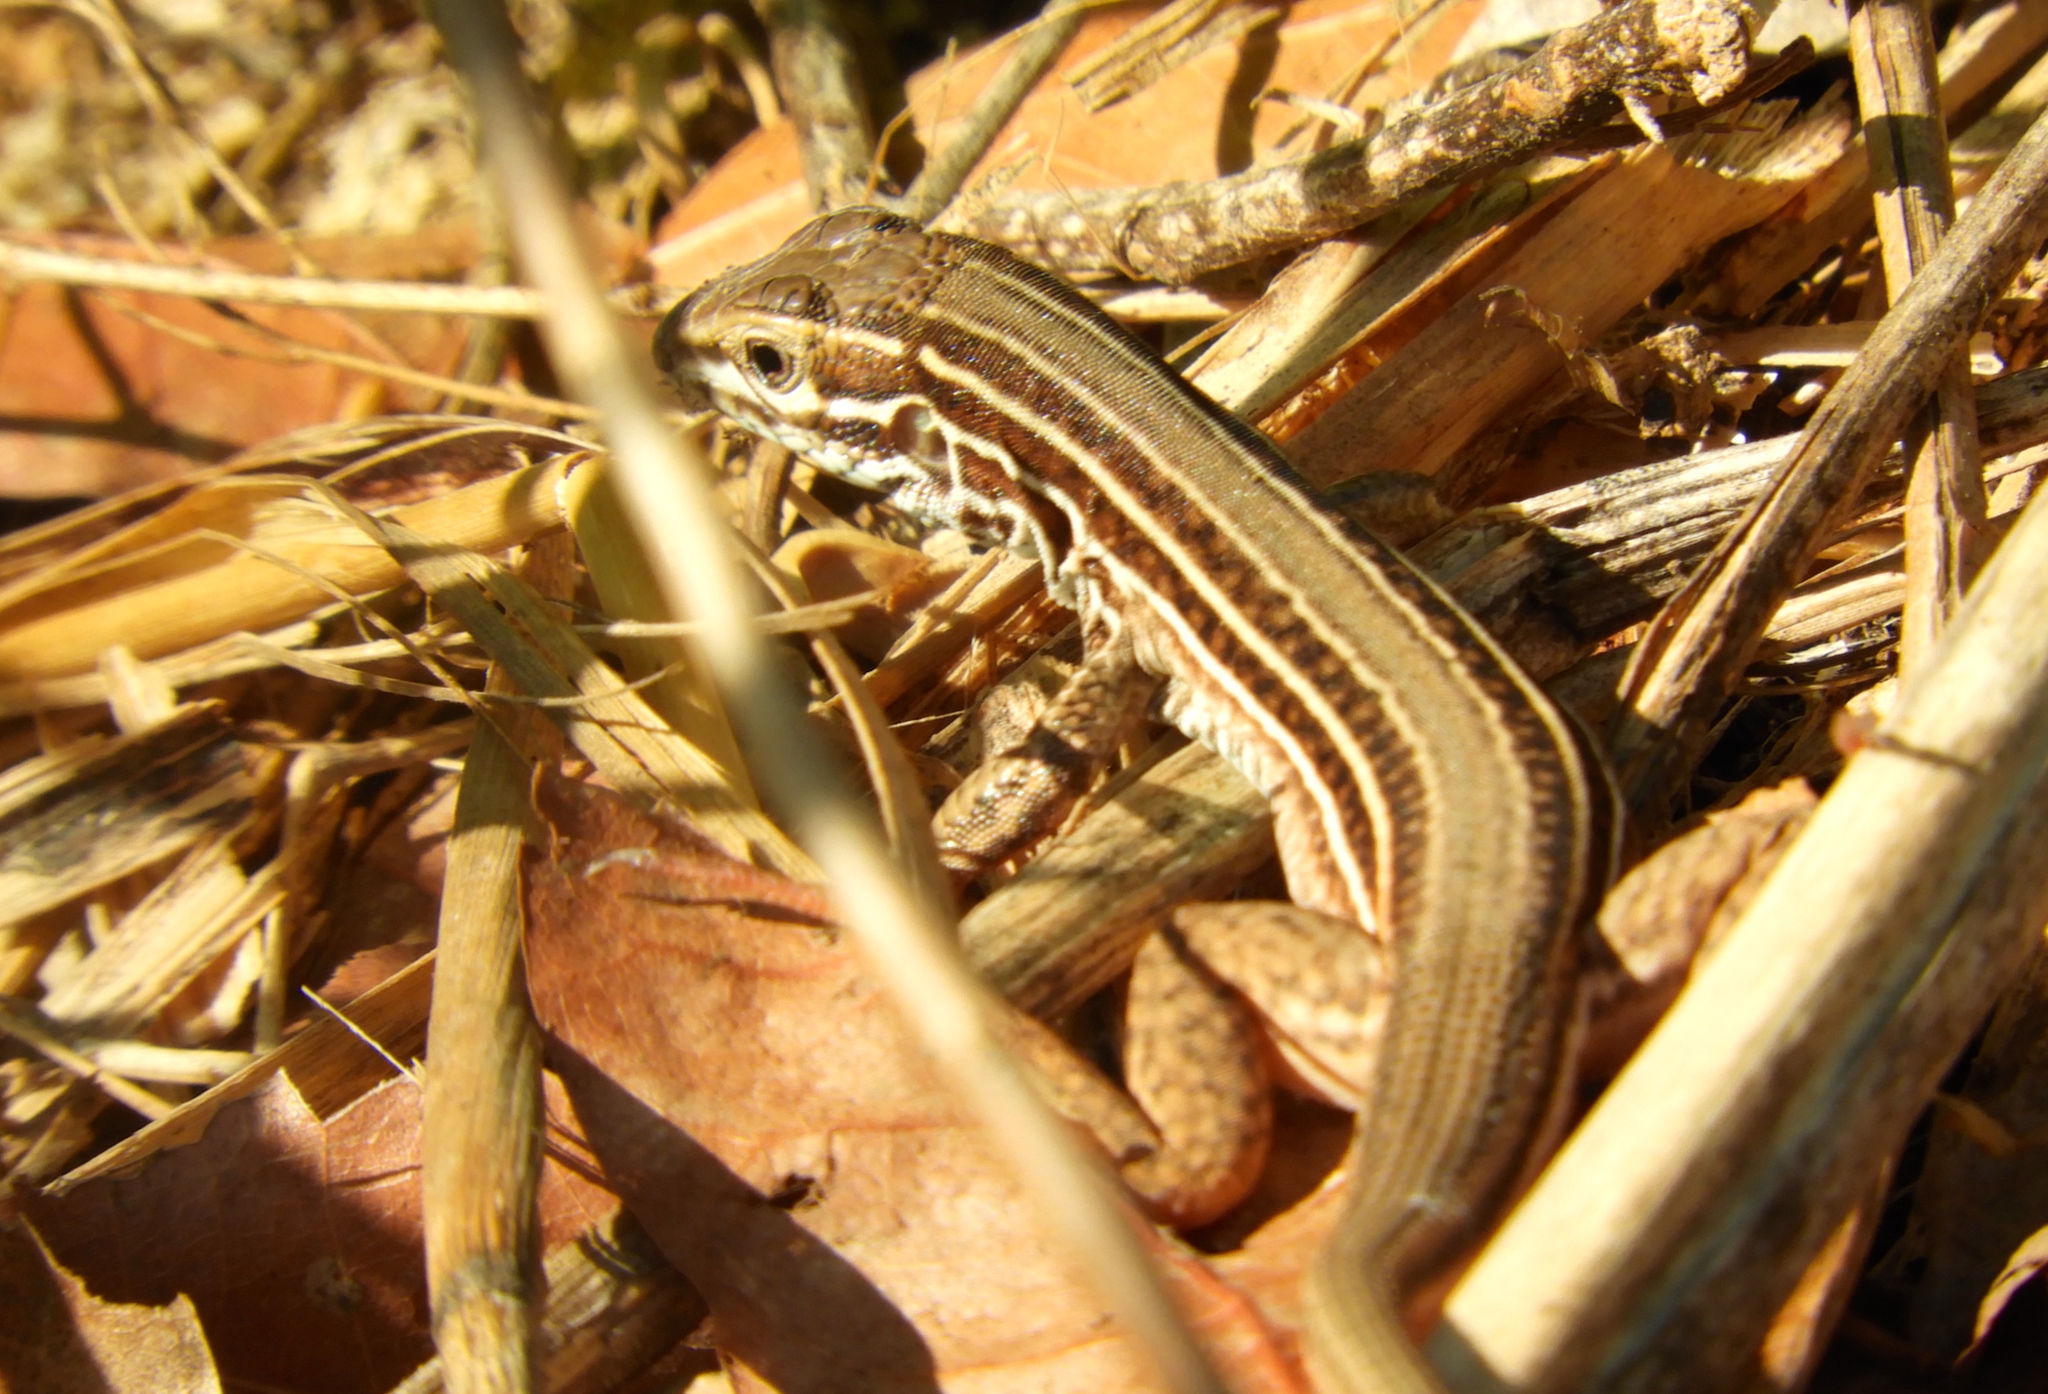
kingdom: Animalia
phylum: Chordata
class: Squamata
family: Teiidae
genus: Aspidoscelis
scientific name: Aspidoscelis costatus
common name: Western mexico whiptail
